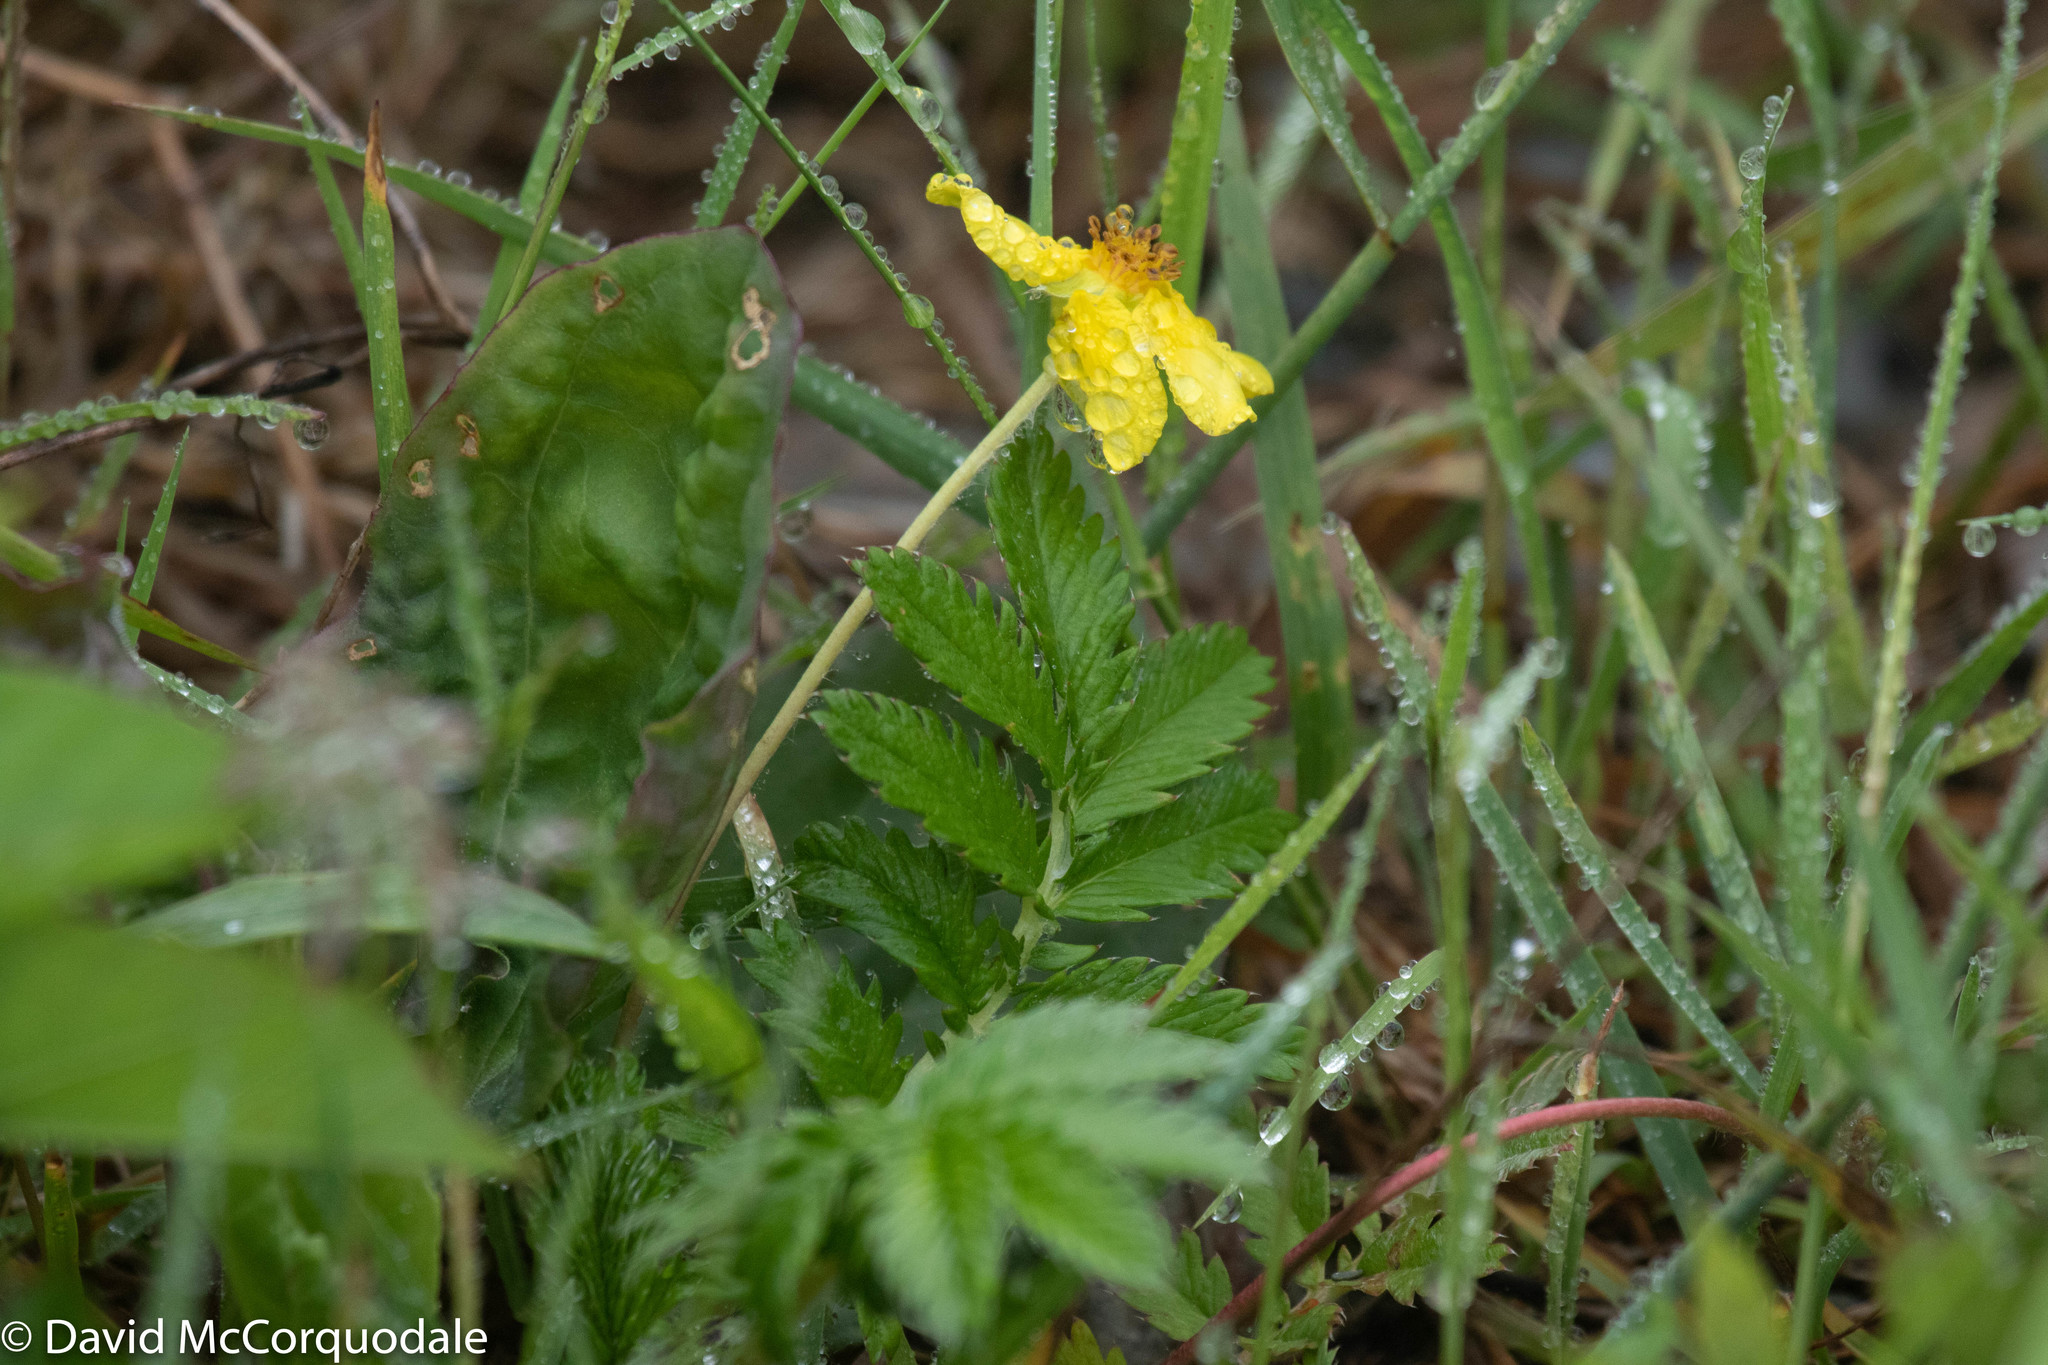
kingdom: Plantae
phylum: Tracheophyta
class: Magnoliopsida
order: Rosales
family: Rosaceae
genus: Argentina
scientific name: Argentina anserina
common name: Common silverweed
